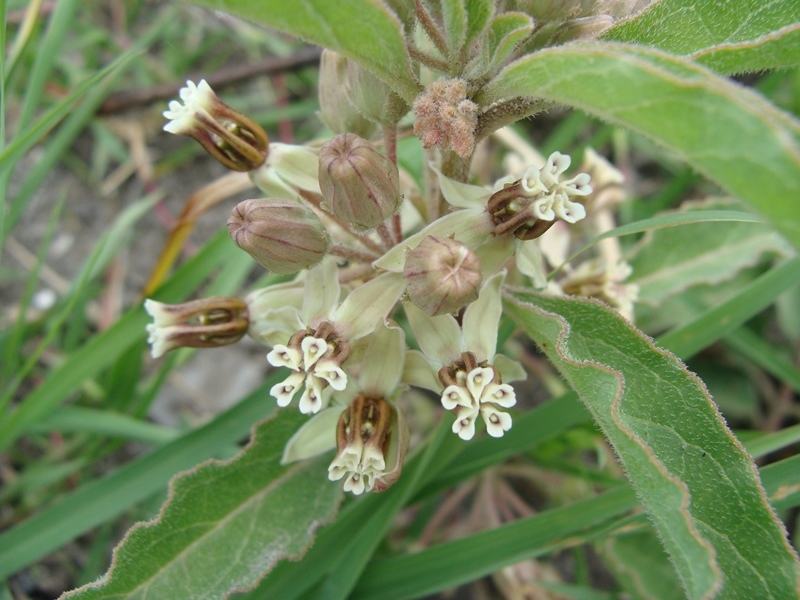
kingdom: Plantae
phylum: Tracheophyta
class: Magnoliopsida
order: Gentianales
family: Apocynaceae
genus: Asclepias
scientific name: Asclepias oenotheroides
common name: Zizotes milkweed
